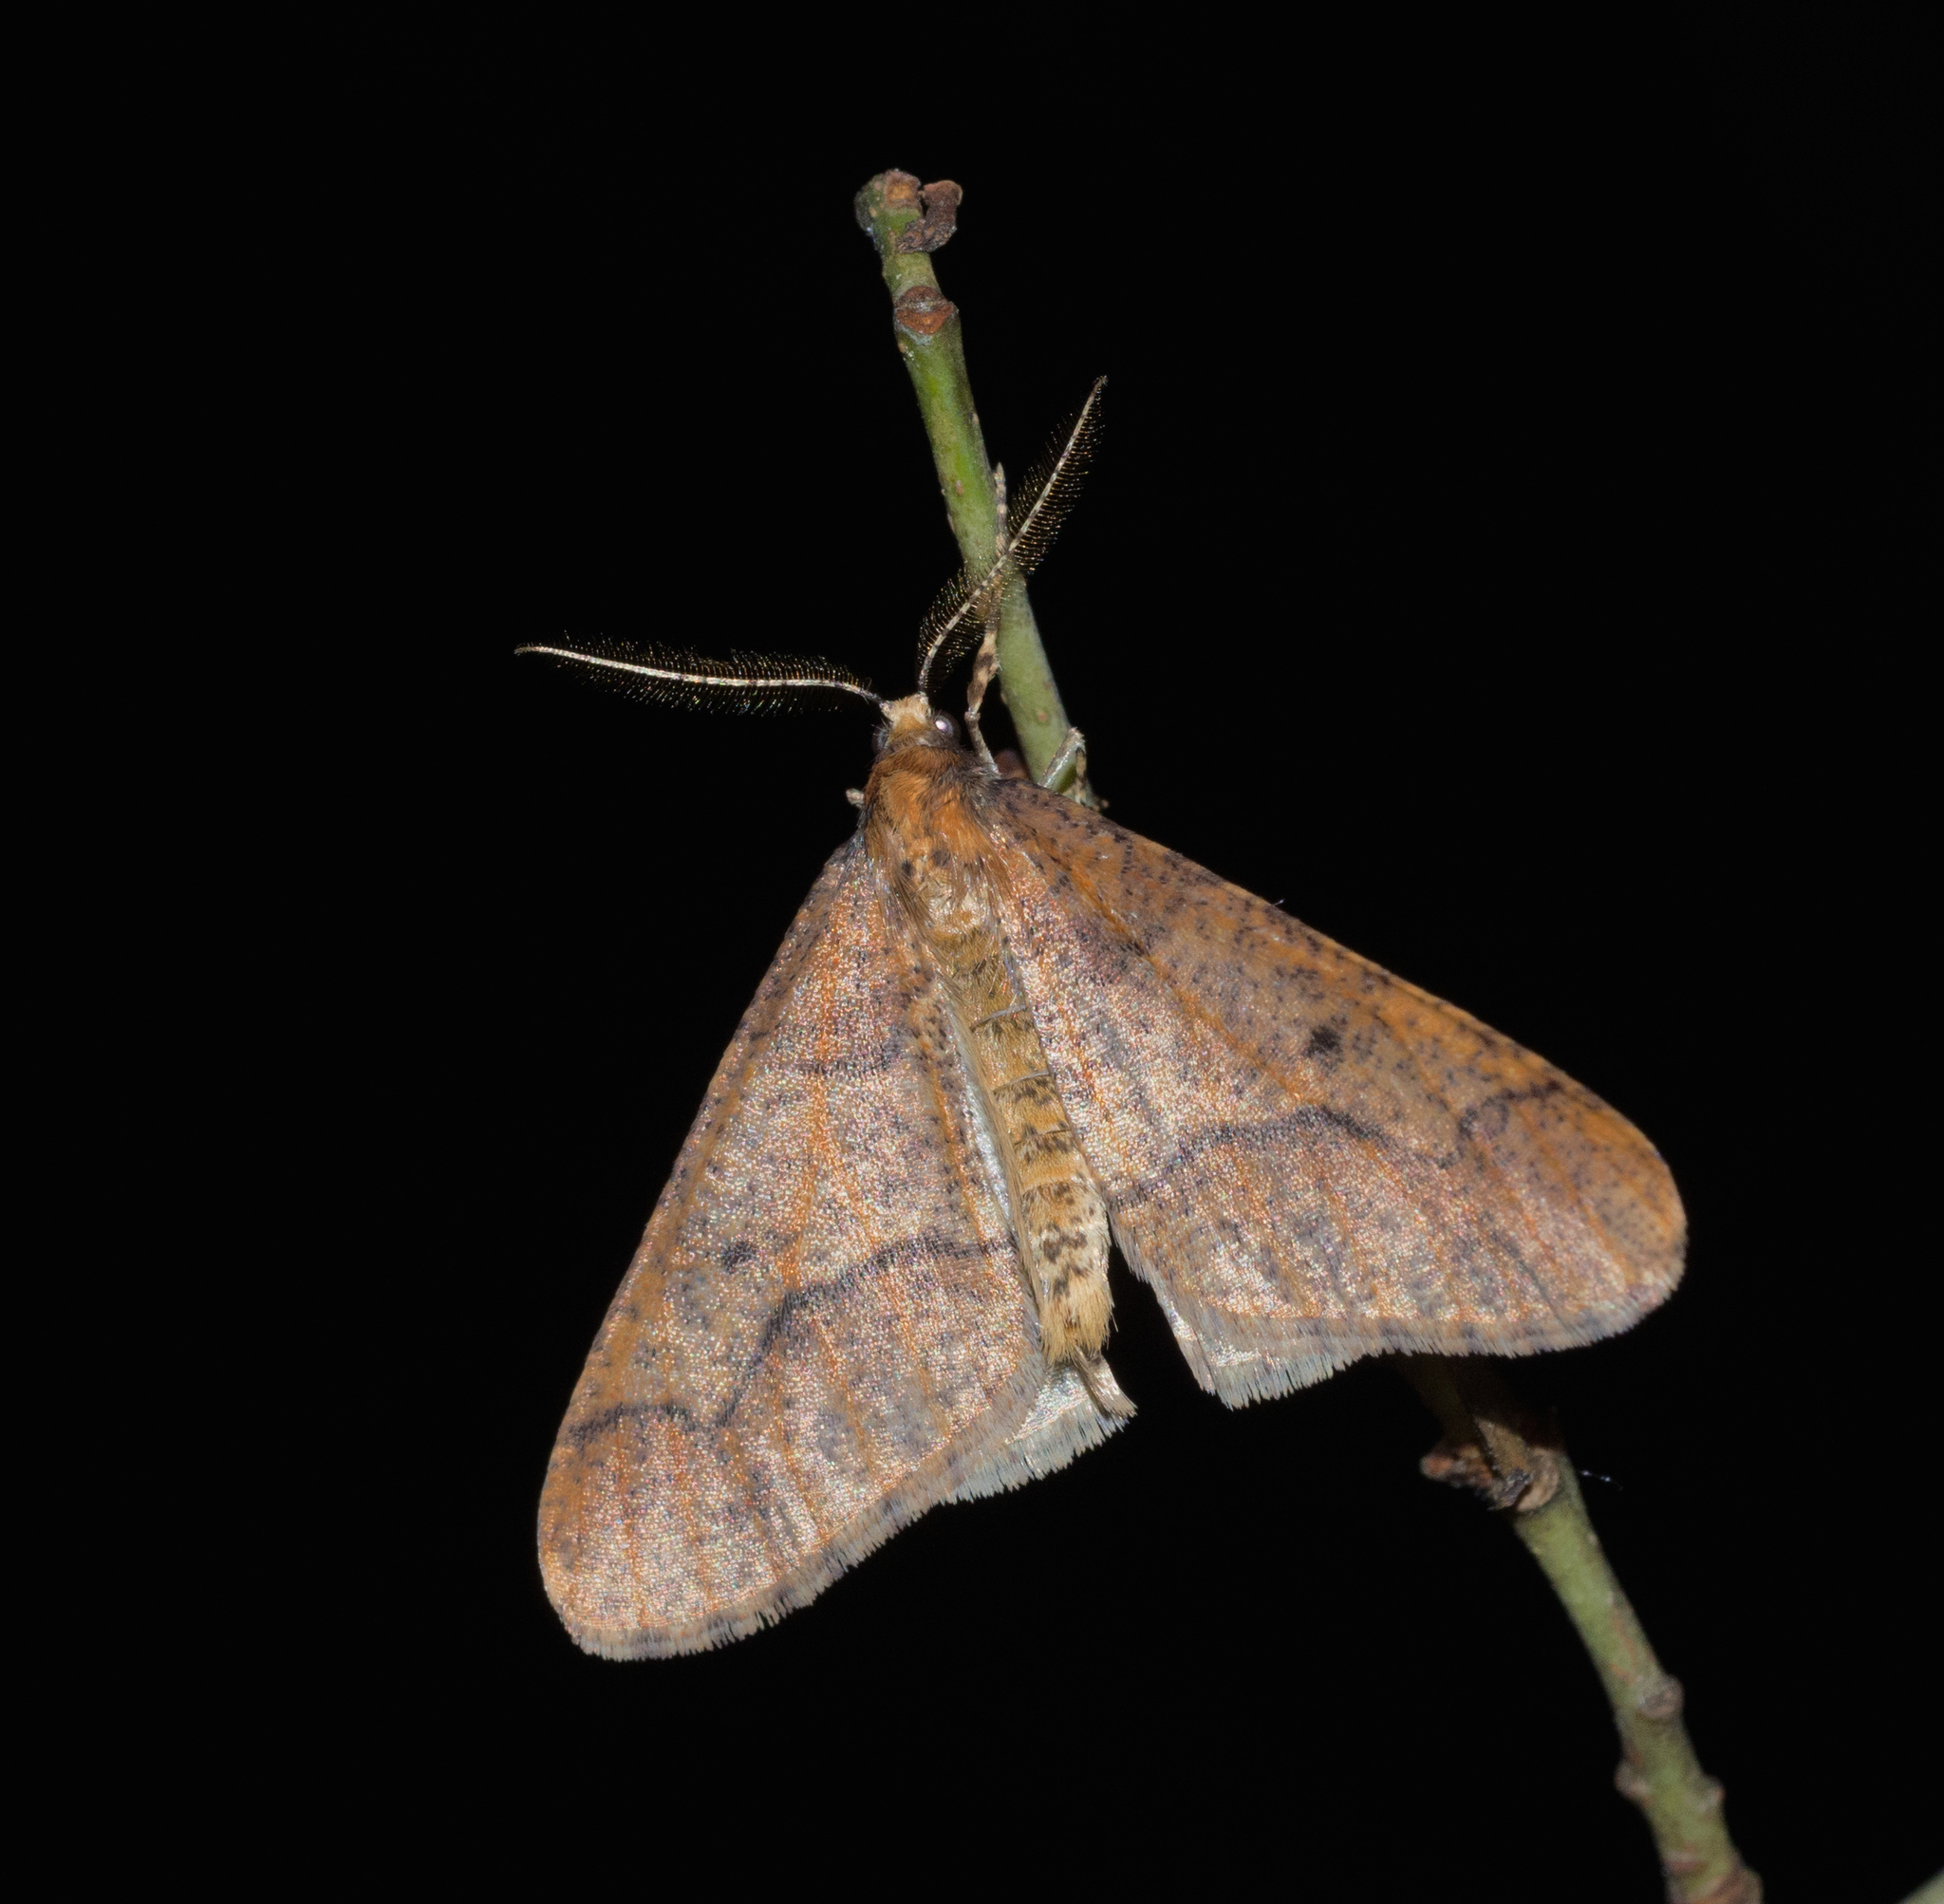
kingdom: Animalia
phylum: Arthropoda
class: Insecta
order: Lepidoptera
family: Geometridae
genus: Erannis
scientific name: Erannis defoliaria
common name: Mottled umber
